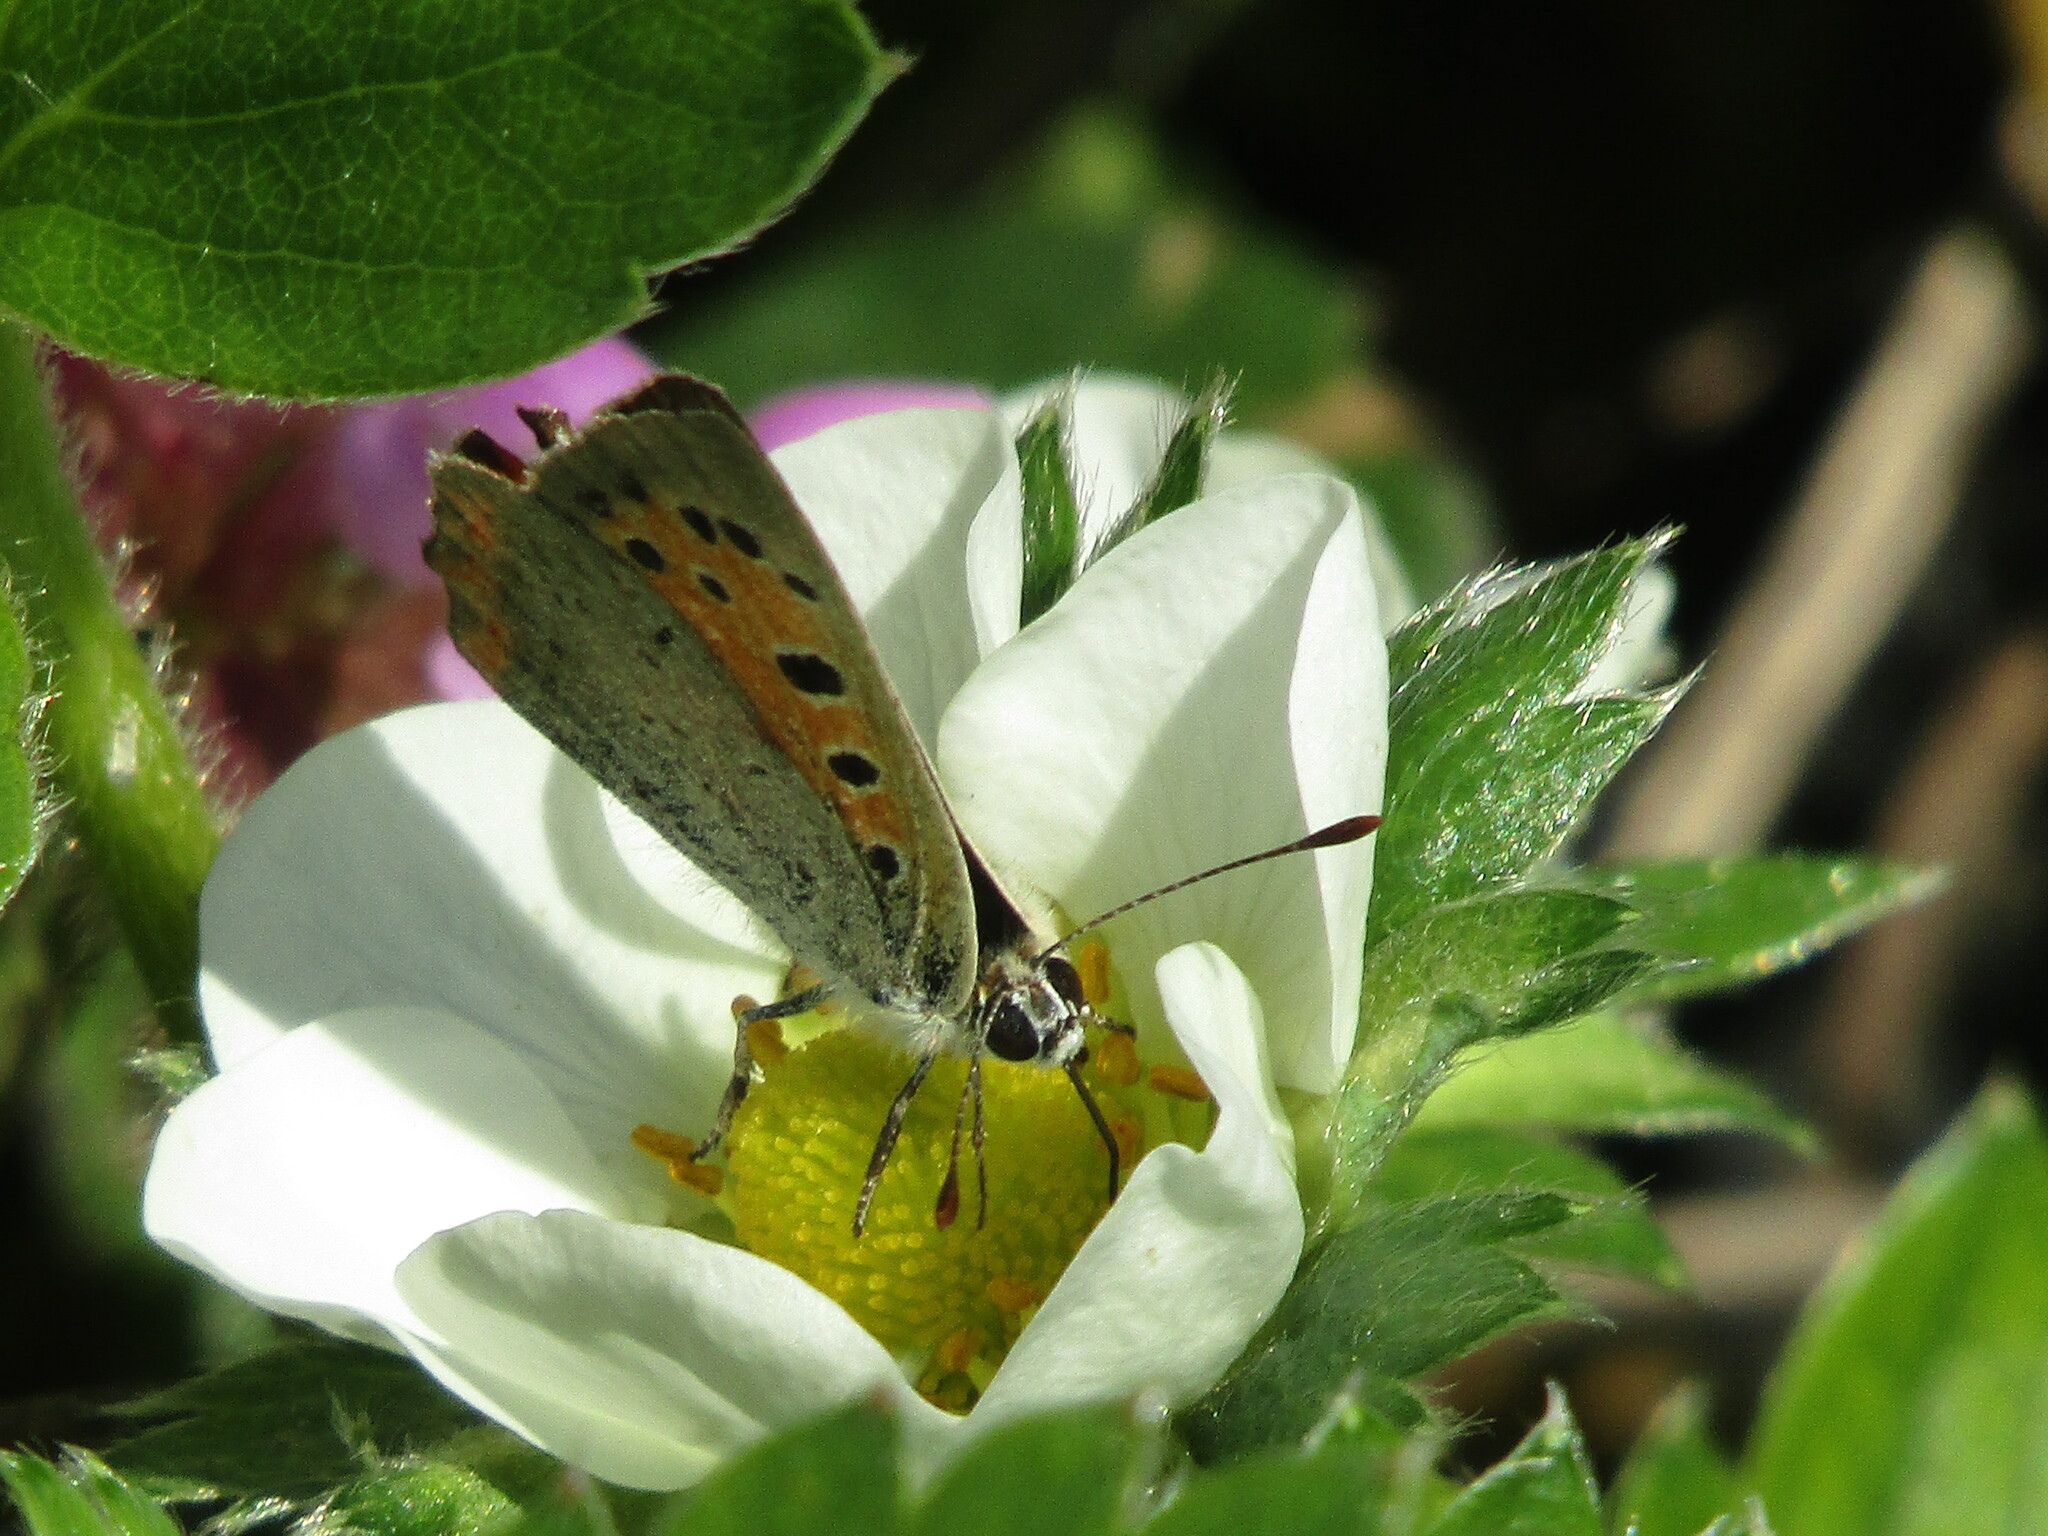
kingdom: Animalia
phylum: Arthropoda
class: Insecta
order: Lepidoptera
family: Lycaenidae
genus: Lycaena
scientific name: Lycaena phlaeas
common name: Small copper
